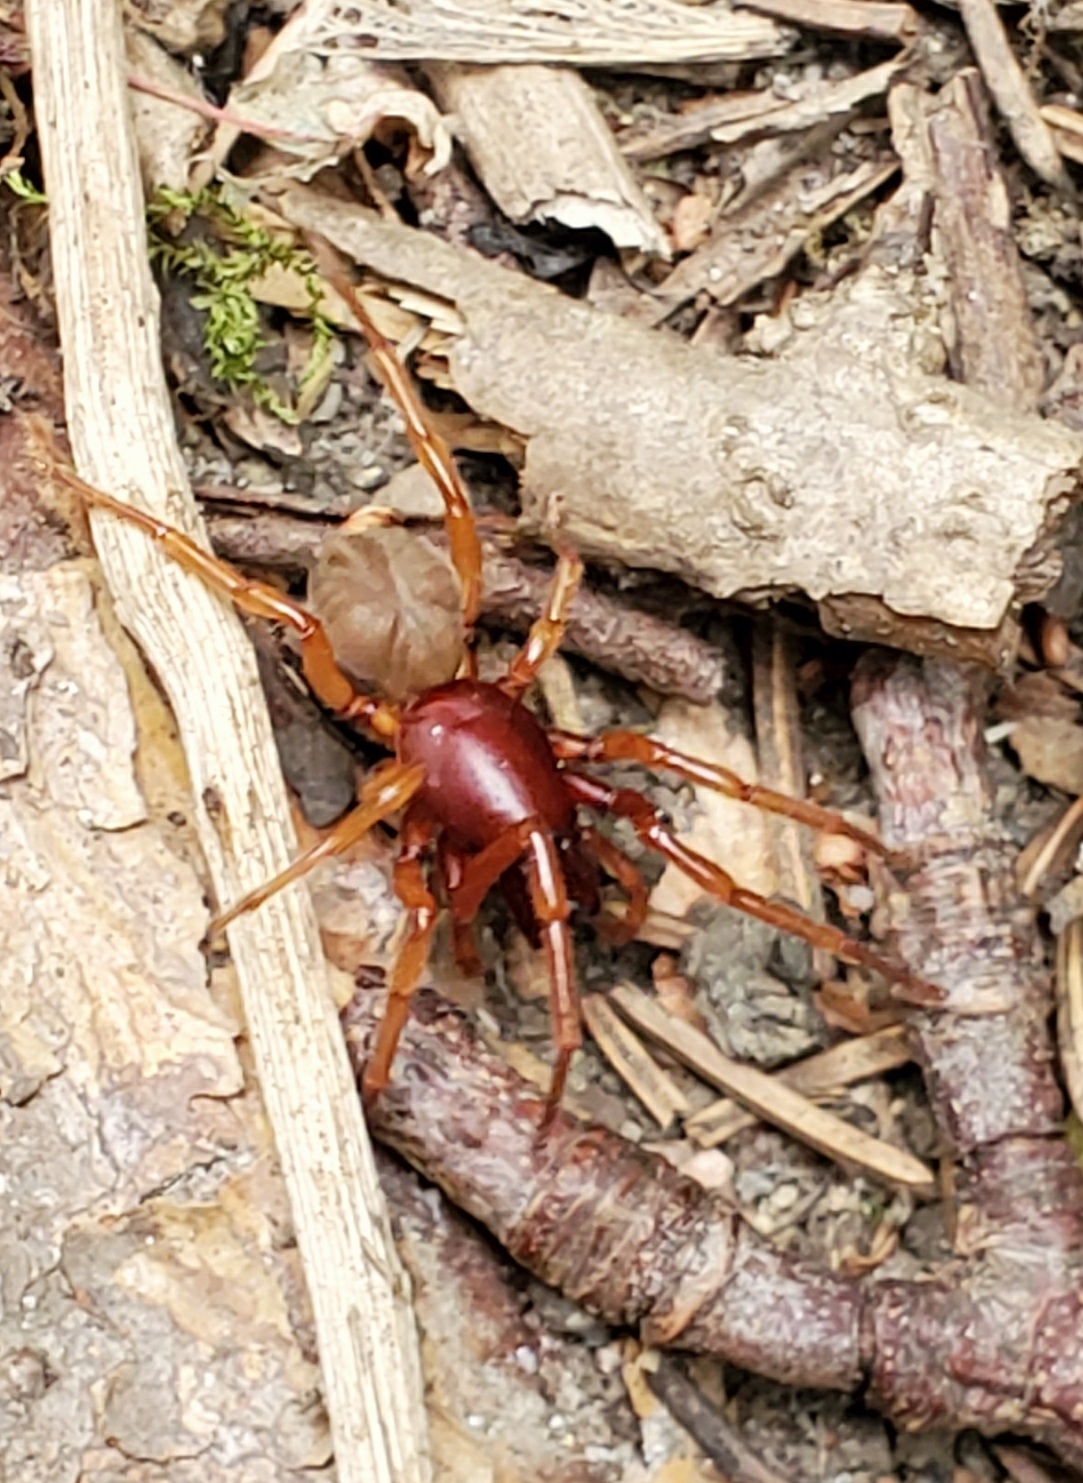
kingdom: Animalia
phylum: Arthropoda
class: Arachnida
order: Araneae
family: Dysderidae
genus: Dysdera
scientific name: Dysdera crocata
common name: Woodlouse spider
